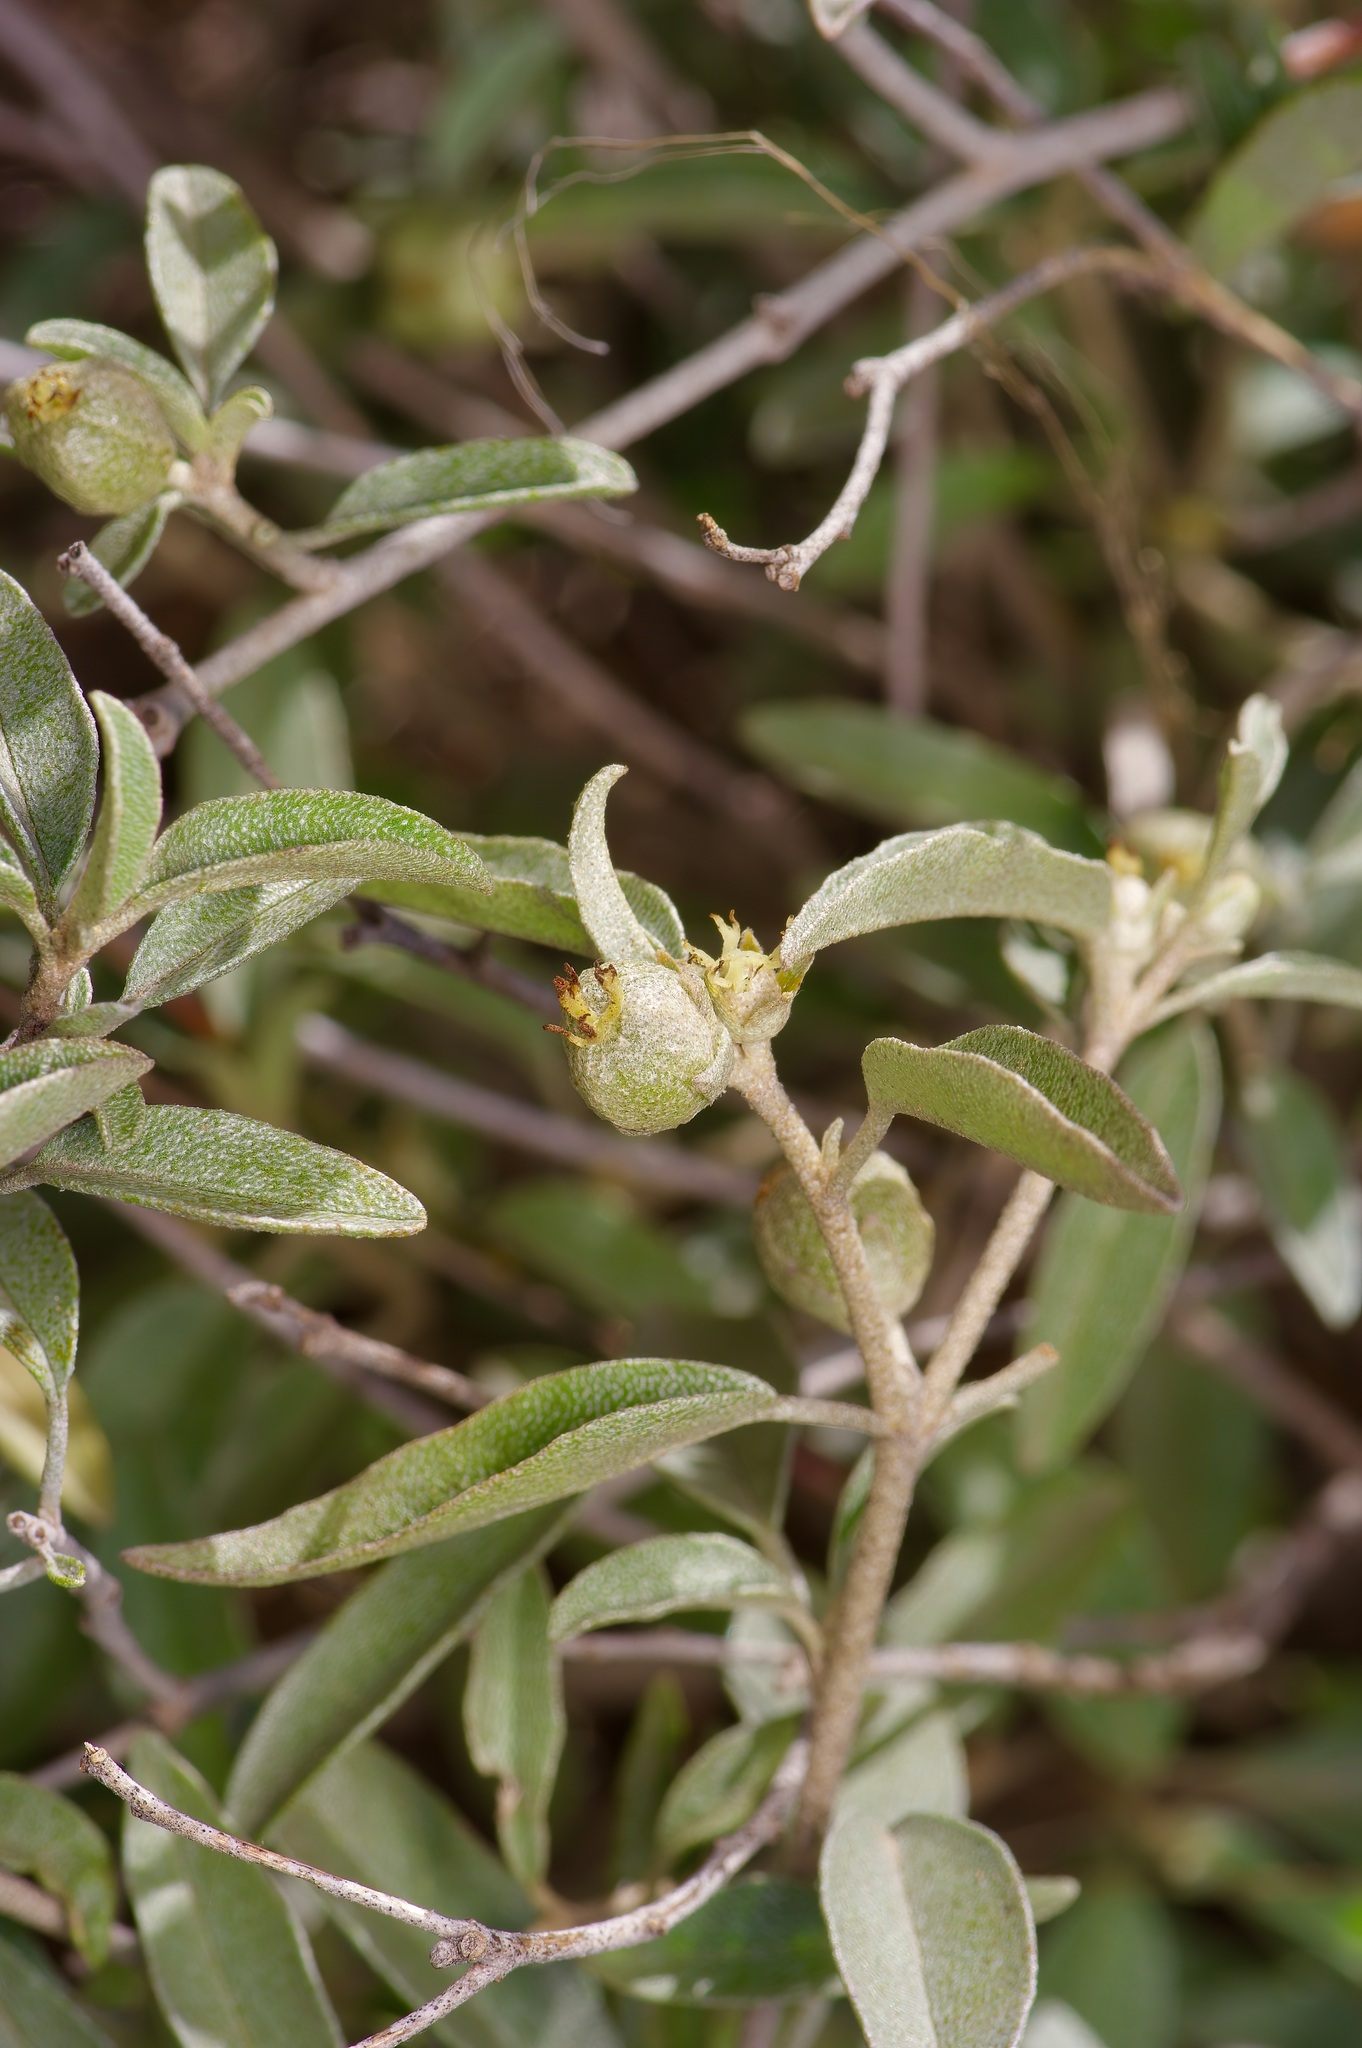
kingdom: Plantae
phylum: Tracheophyta
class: Magnoliopsida
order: Malpighiales
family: Euphorbiaceae
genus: Croton
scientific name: Croton dioicus
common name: Grassland croton
